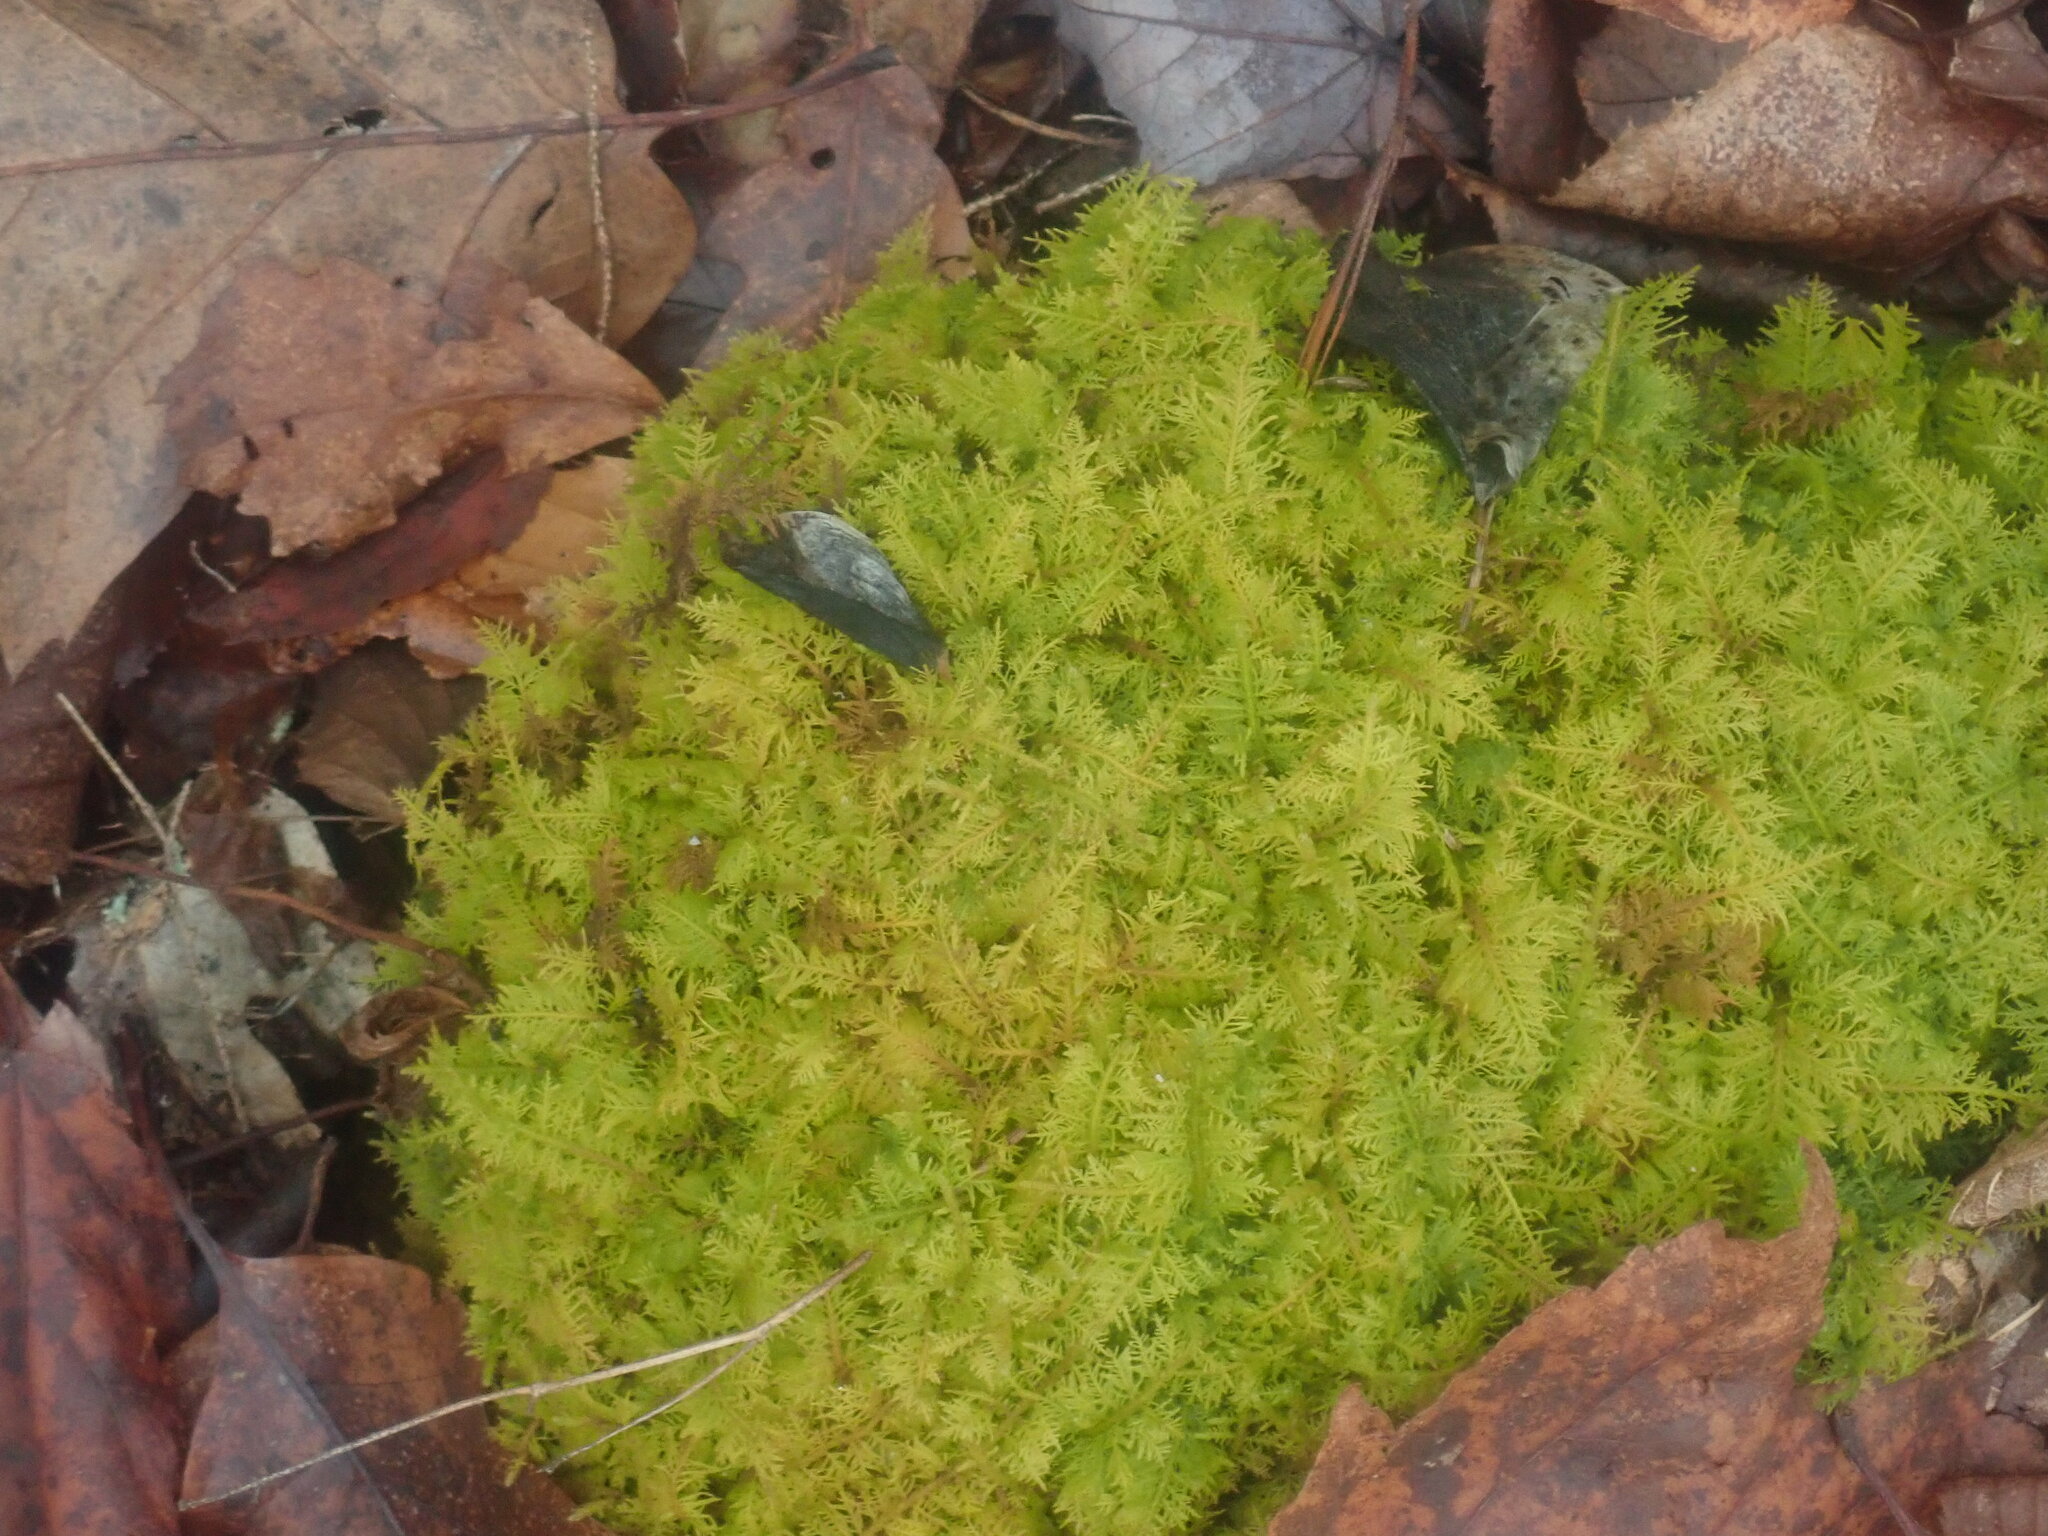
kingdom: Plantae
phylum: Bryophyta
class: Bryopsida
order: Hypnales
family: Thuidiaceae
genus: Thuidium
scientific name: Thuidium
